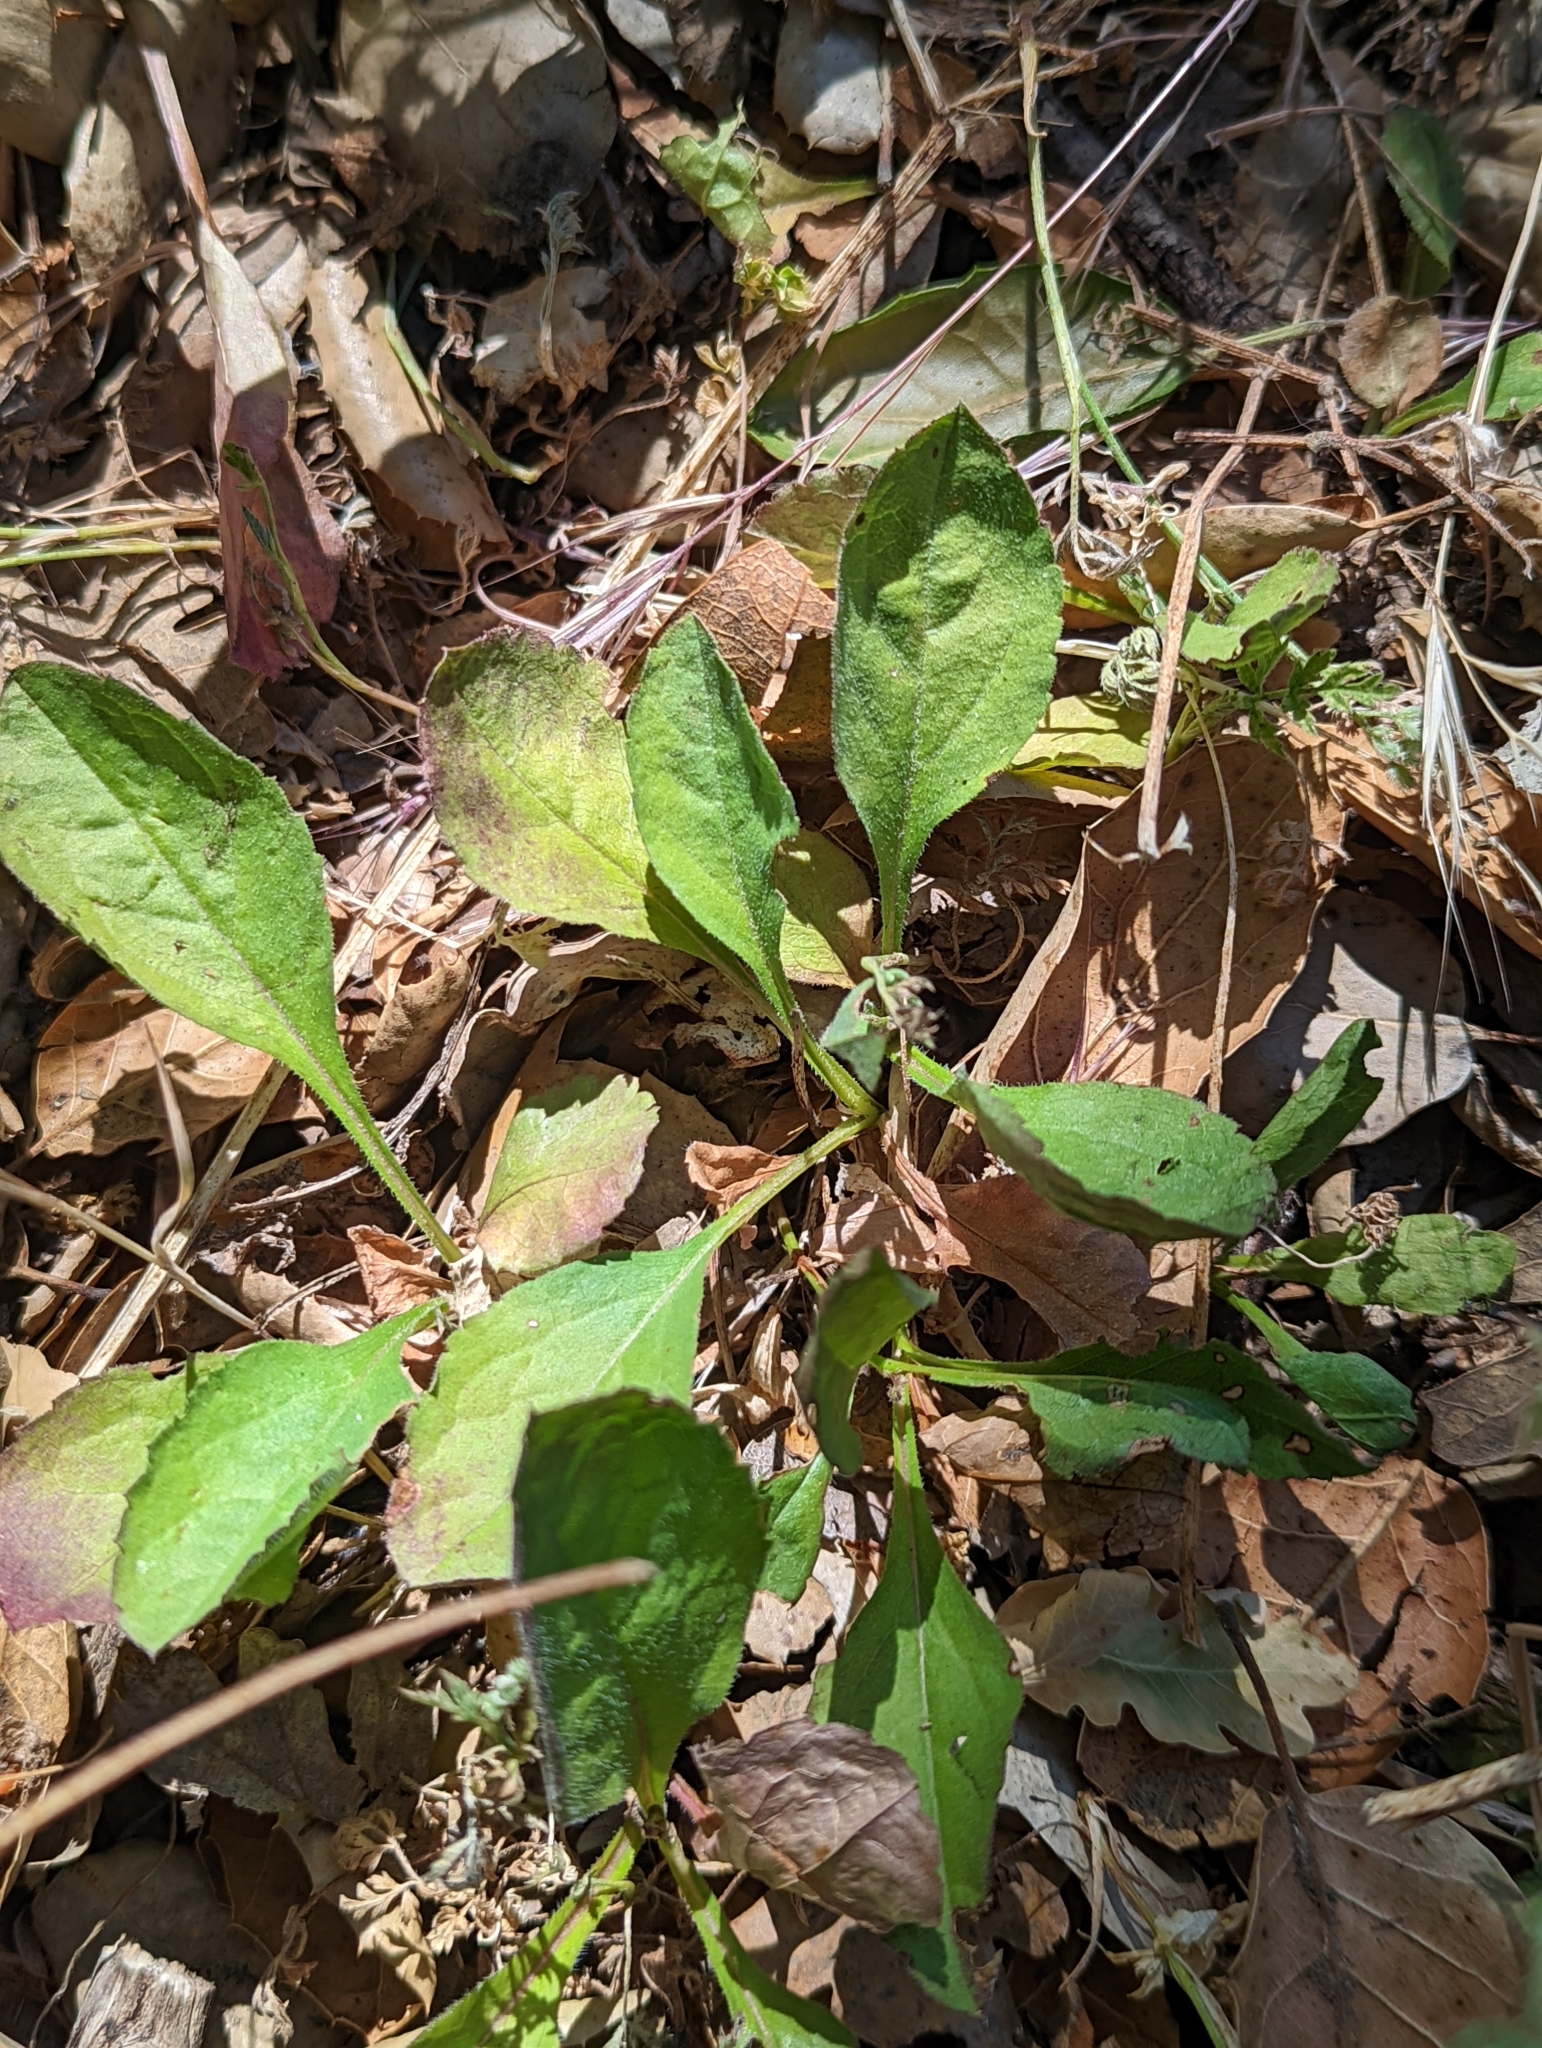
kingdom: Plantae
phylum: Tracheophyta
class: Magnoliopsida
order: Asterales
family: Asteraceae
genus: Eurybia
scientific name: Eurybia radulina
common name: Rough-leaved aster
